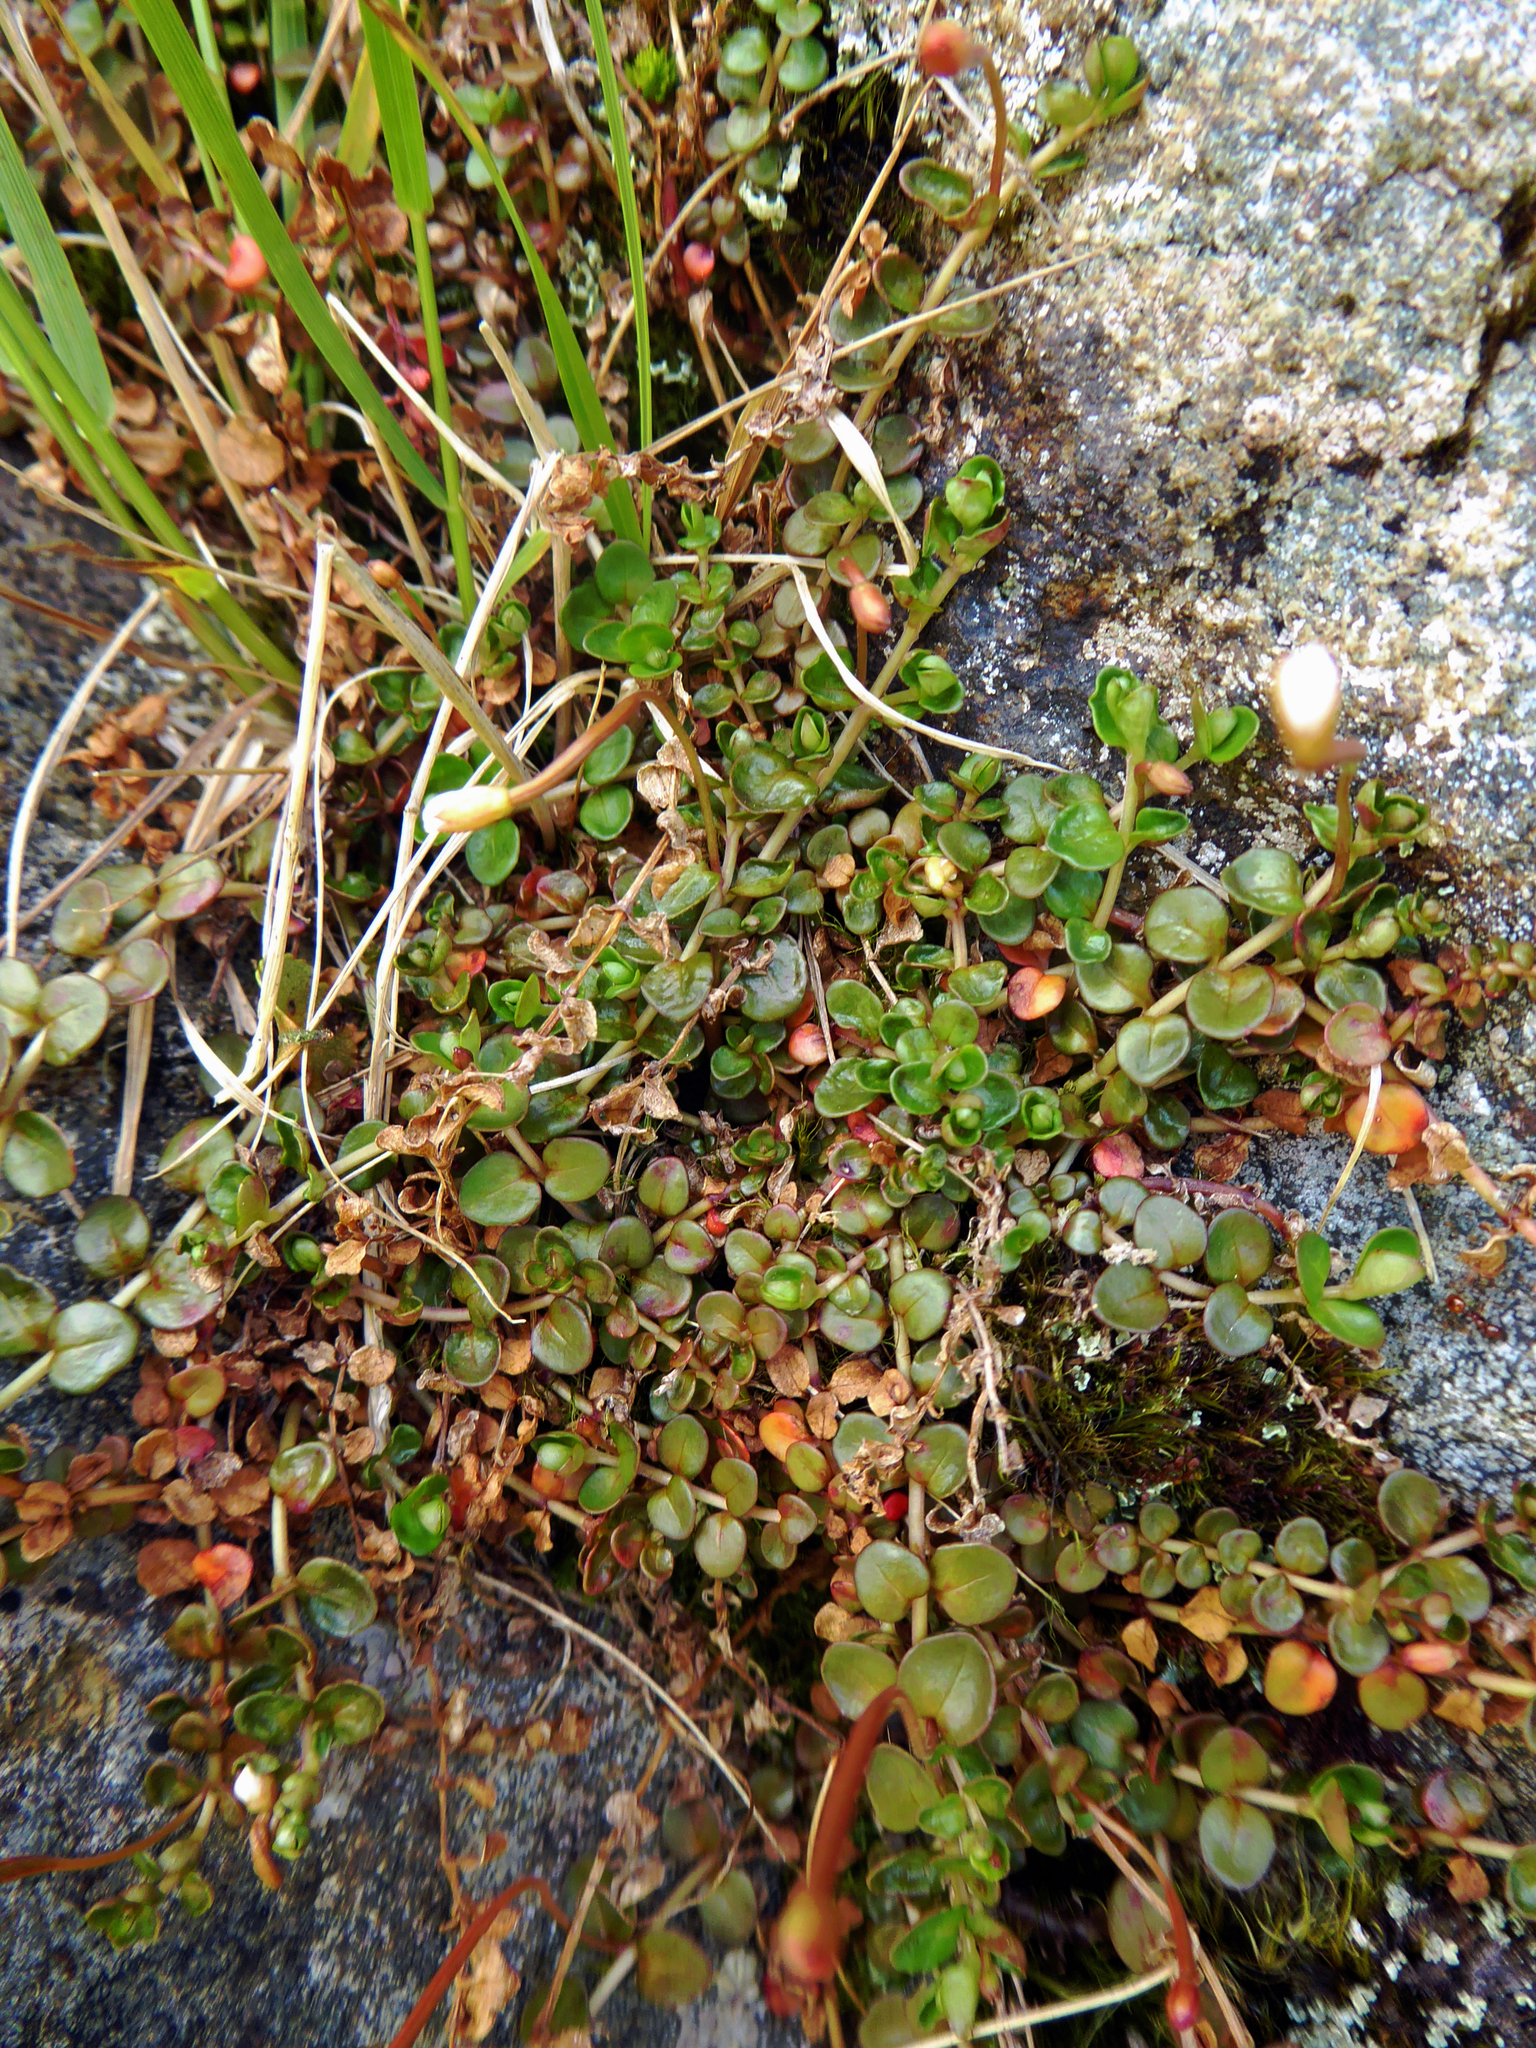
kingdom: Plantae
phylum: Tracheophyta
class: Magnoliopsida
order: Myrtales
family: Onagraceae
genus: Epilobium
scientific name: Epilobium brunnescens
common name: New zealand willowherb
